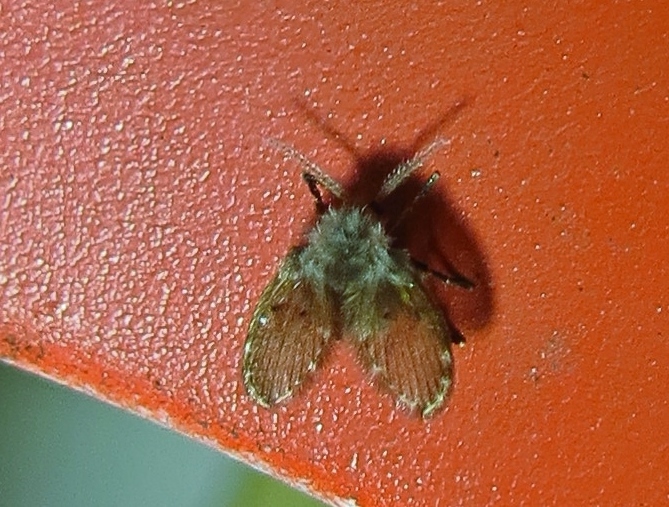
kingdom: Animalia
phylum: Arthropoda
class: Insecta
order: Diptera
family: Psychodidae
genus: Clogmia
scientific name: Clogmia albipunctatus
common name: White-spotted moth fly
